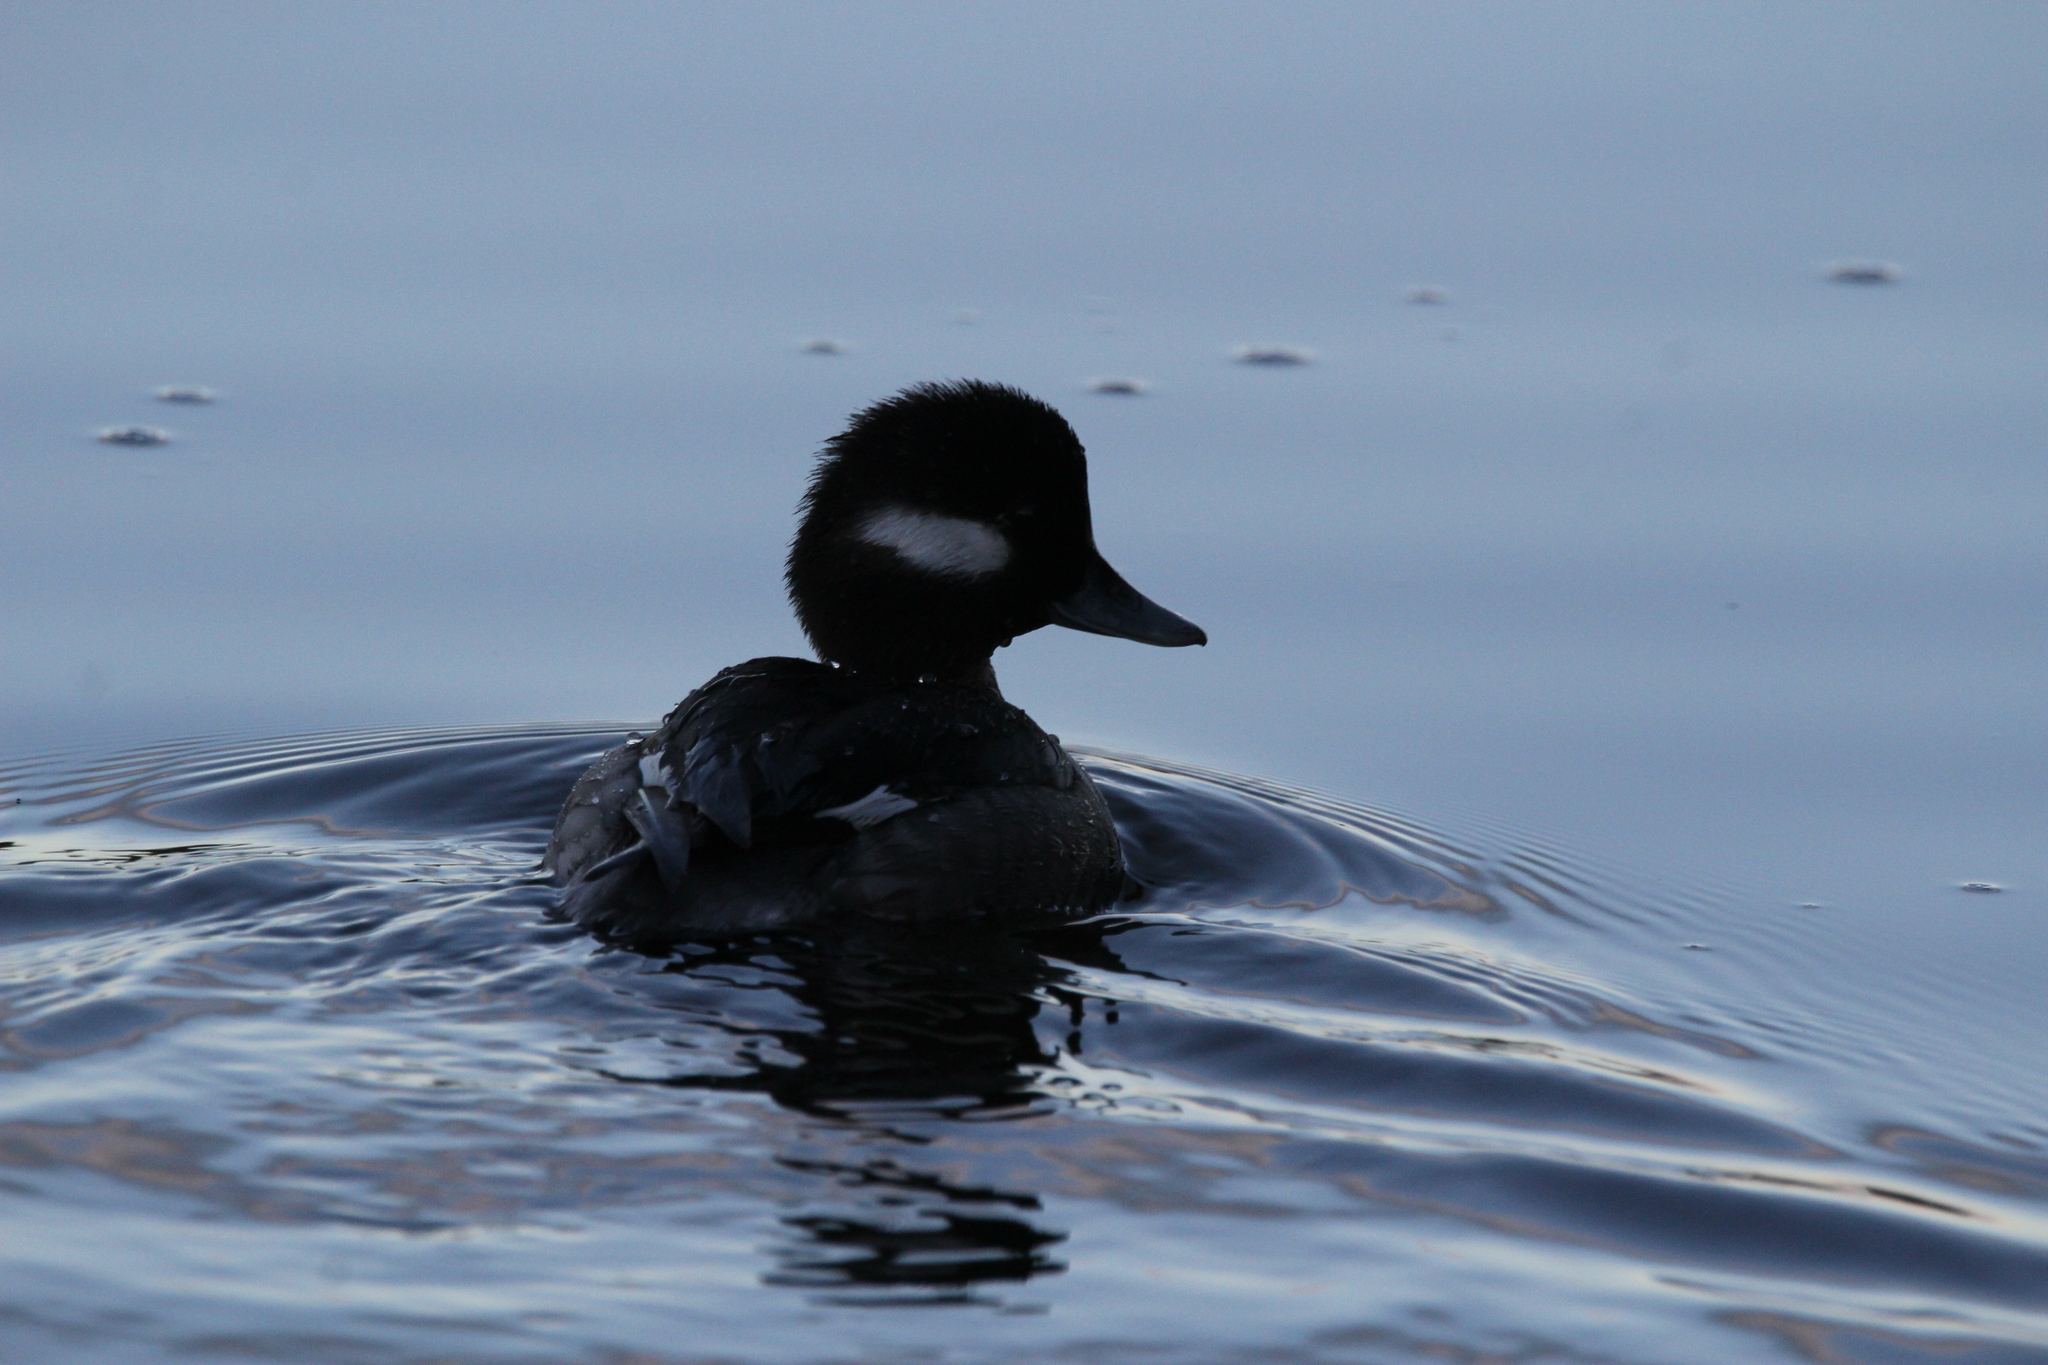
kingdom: Animalia
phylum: Chordata
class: Aves
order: Anseriformes
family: Anatidae
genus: Bucephala
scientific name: Bucephala albeola
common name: Bufflehead
